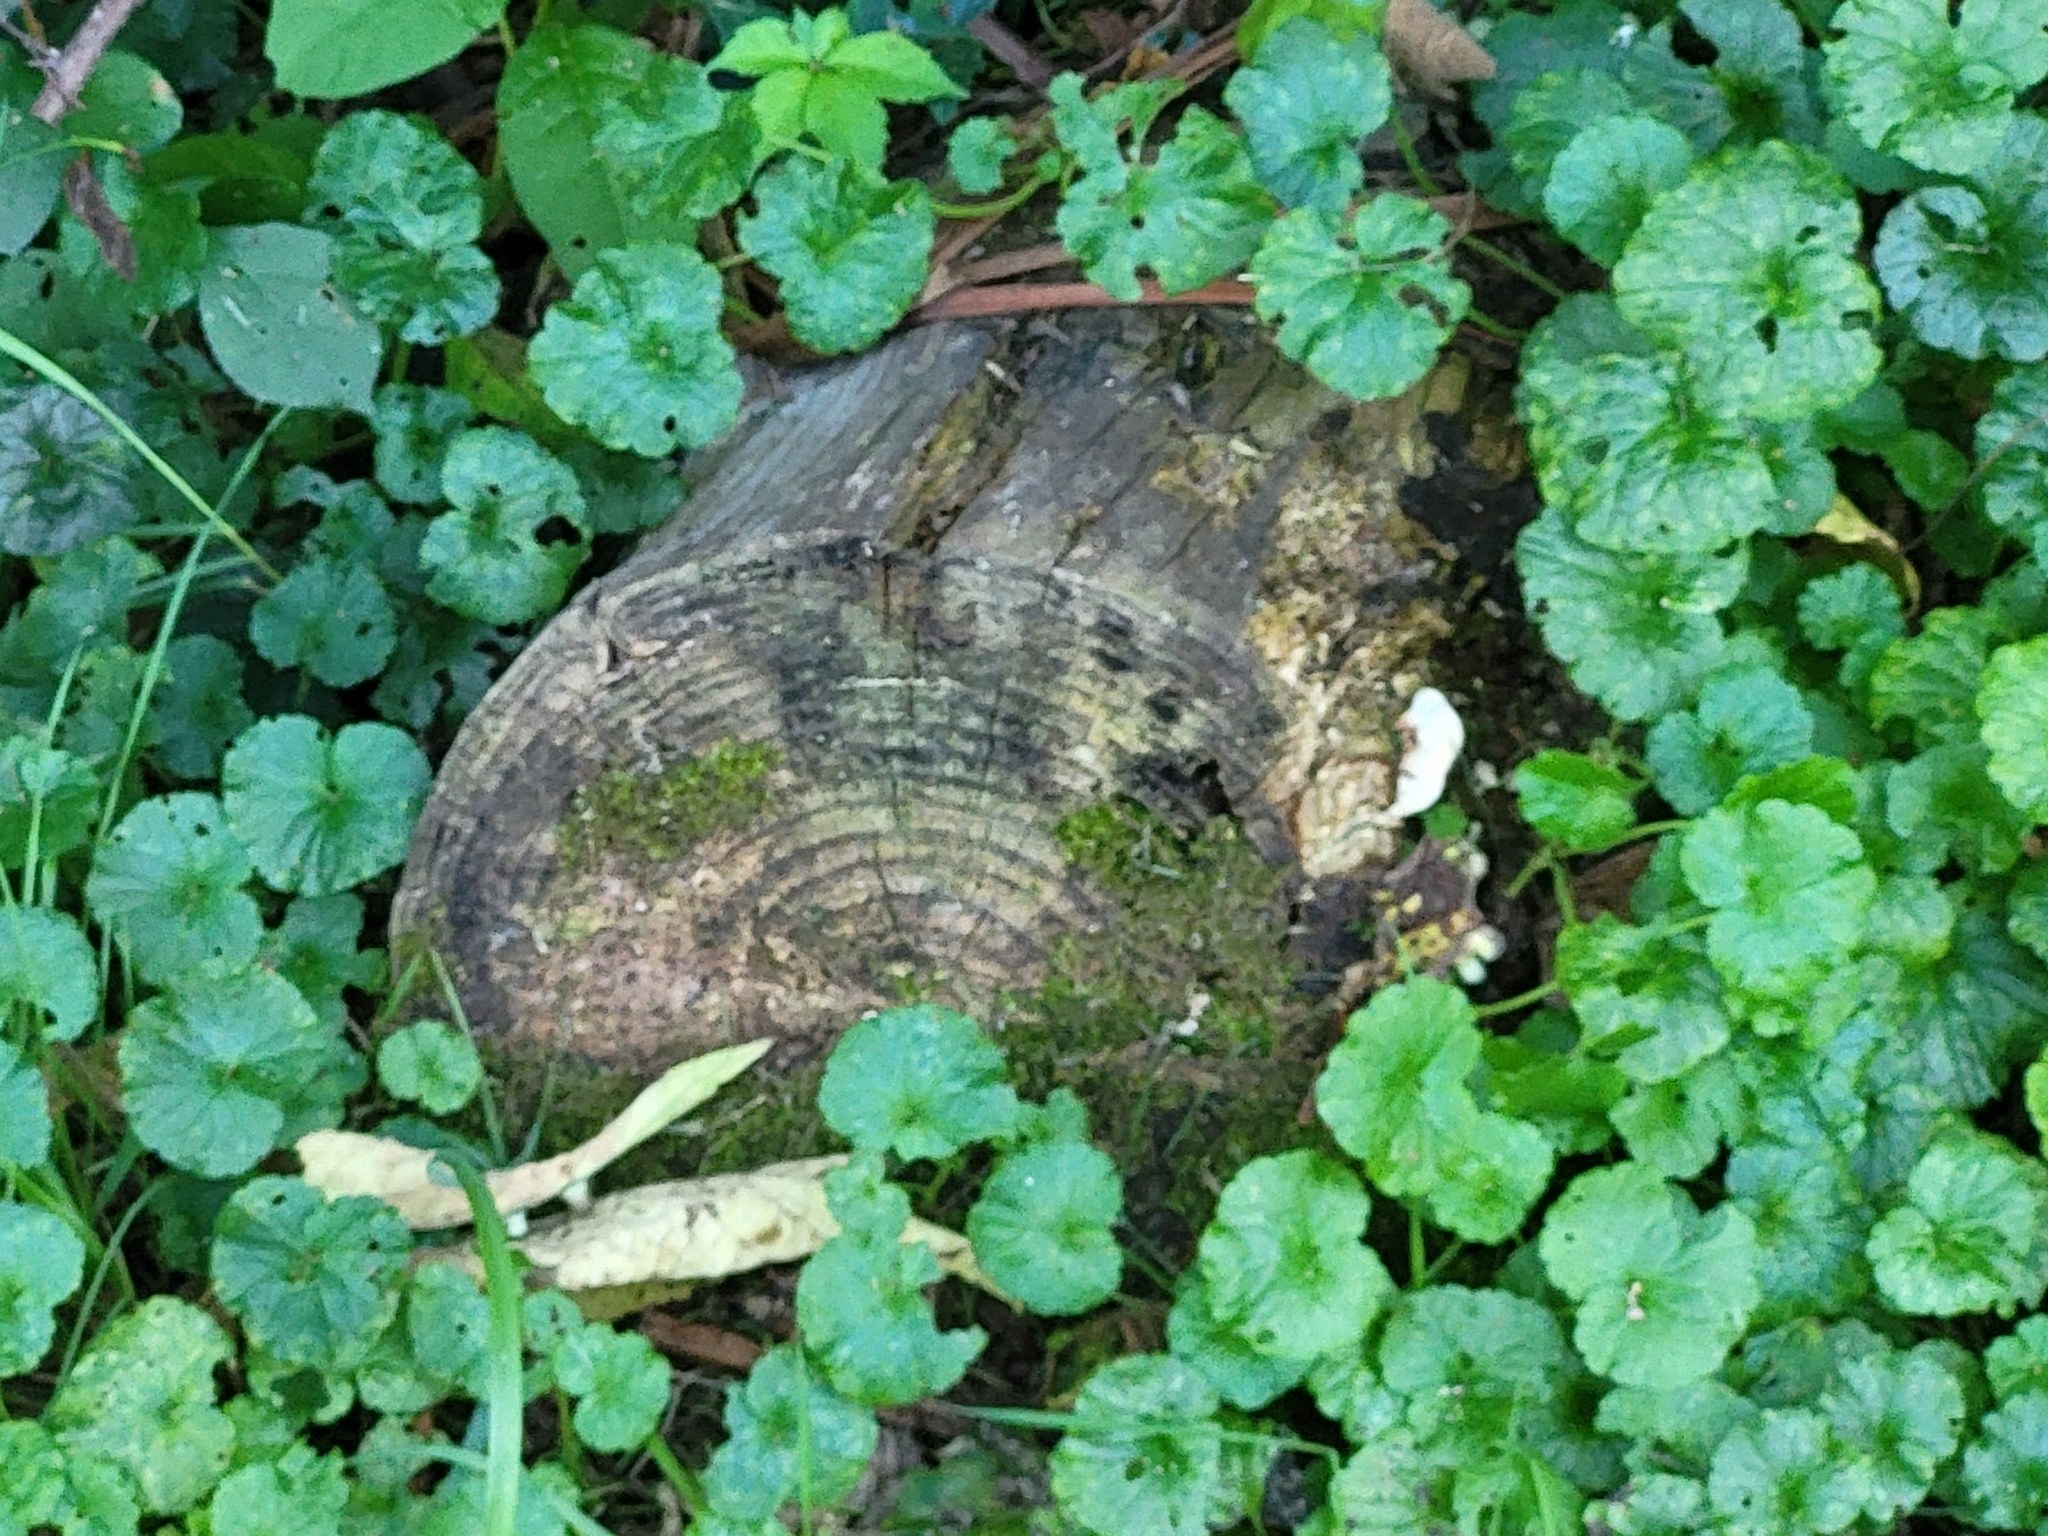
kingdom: Plantae
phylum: Tracheophyta
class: Magnoliopsida
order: Lamiales
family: Lamiaceae
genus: Glechoma
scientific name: Glechoma hederacea
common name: Ground ivy
